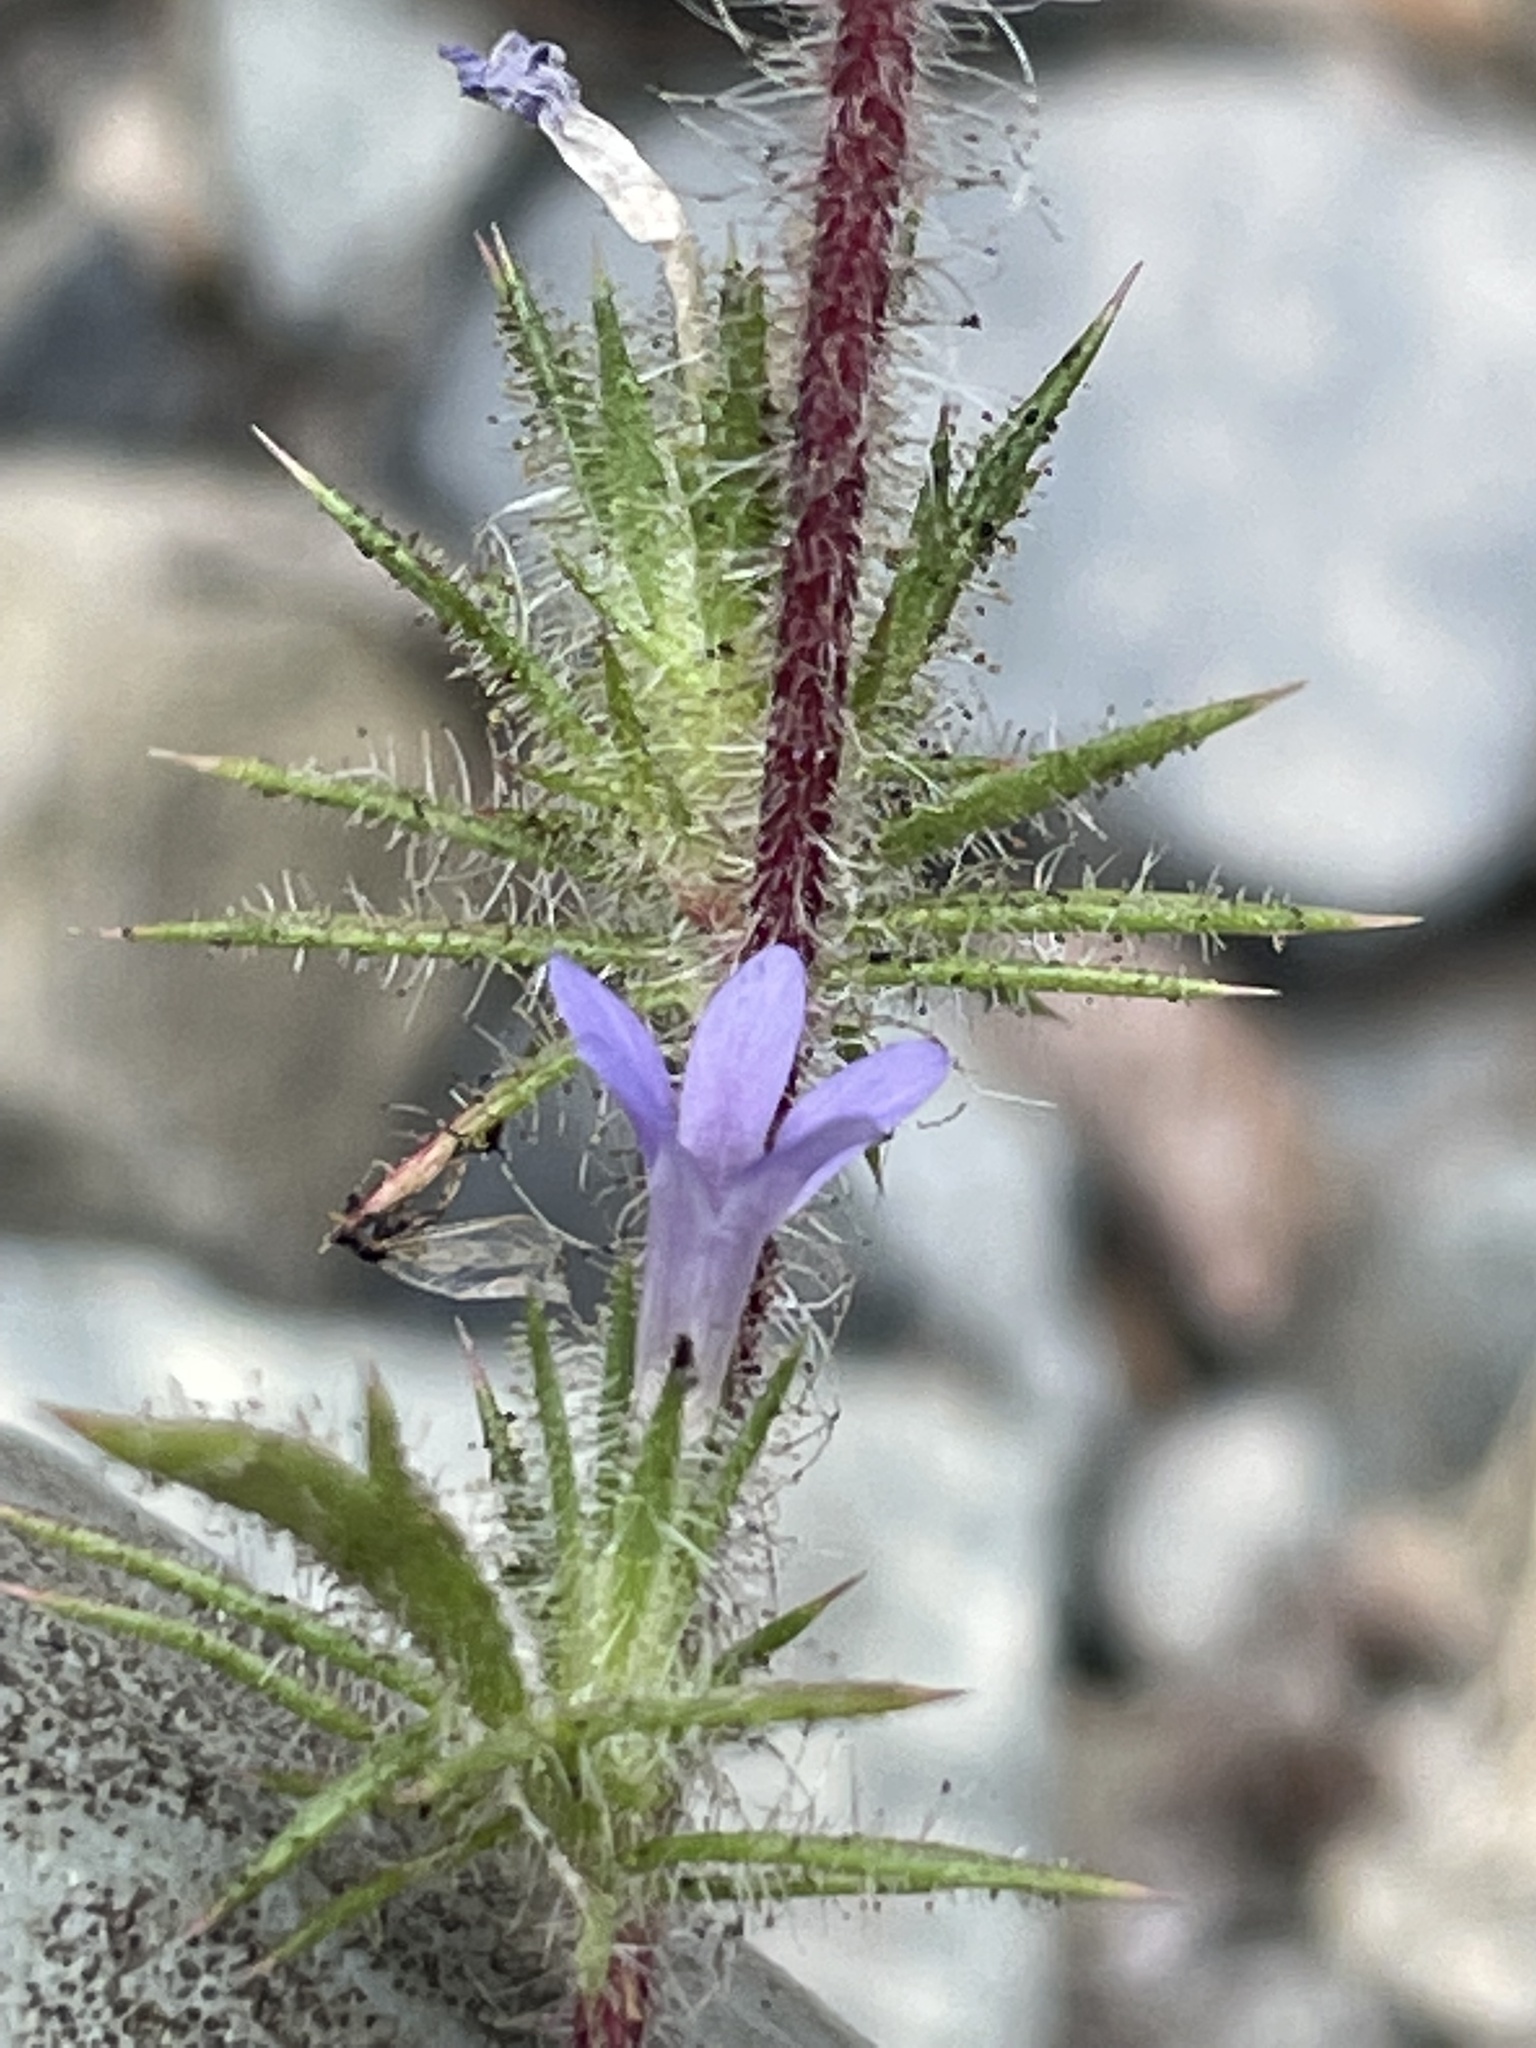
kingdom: Plantae
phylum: Tracheophyta
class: Magnoliopsida
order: Ericales
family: Polemoniaceae
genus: Navarretia
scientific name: Navarretia squarrosa
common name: Skunkweed
